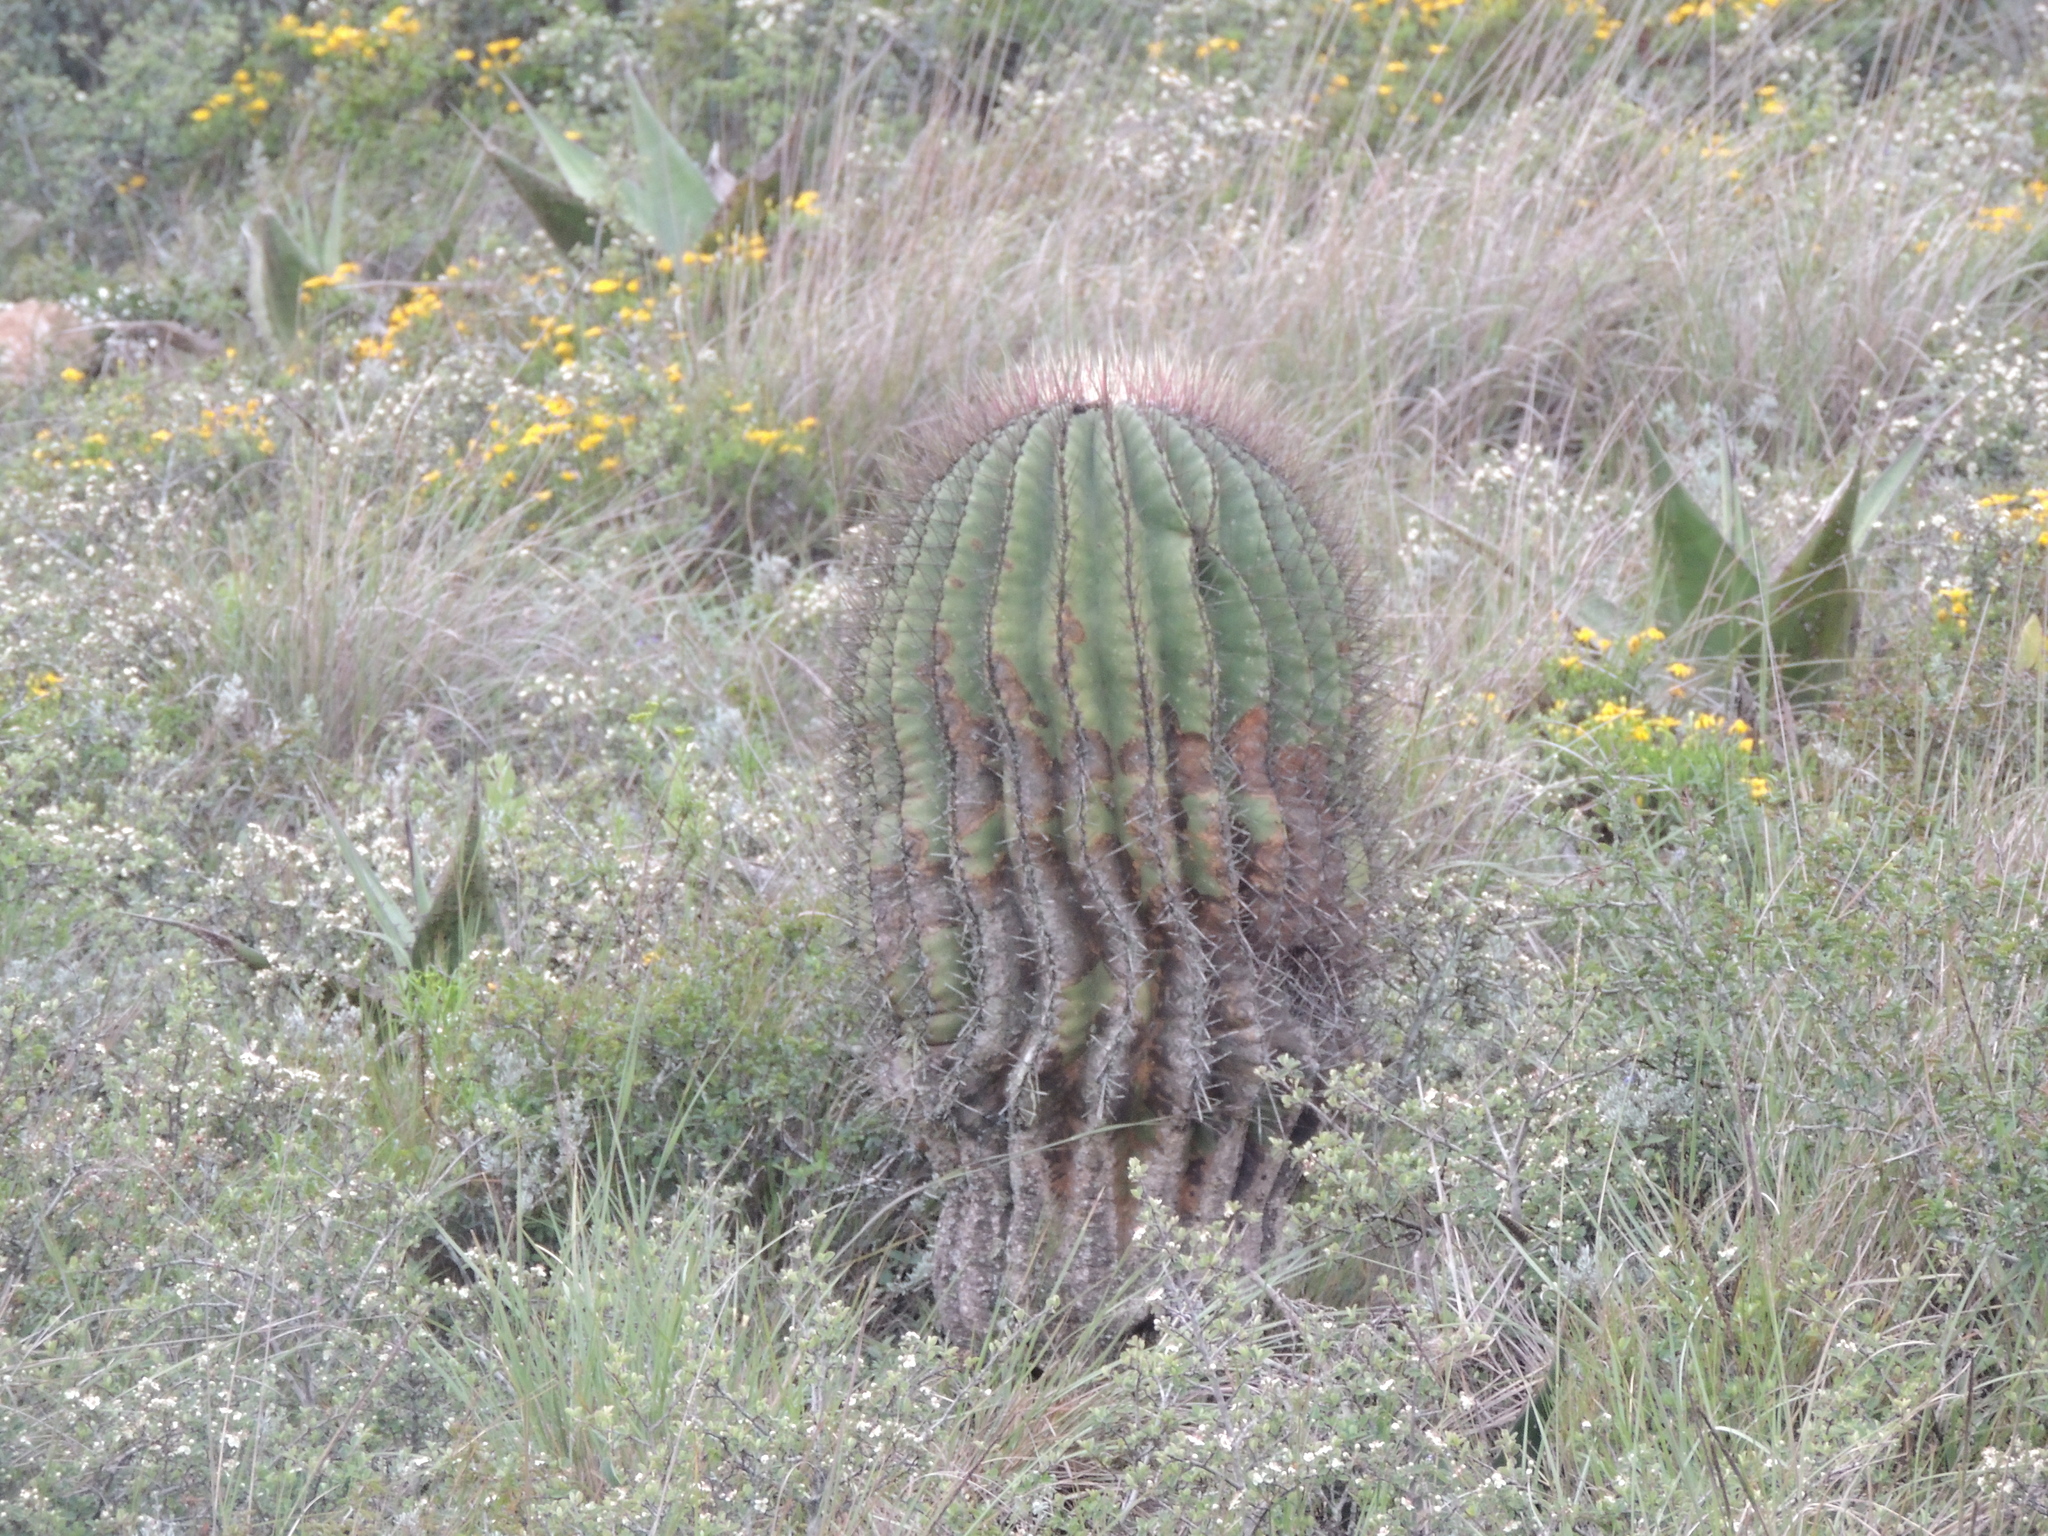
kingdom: Plantae
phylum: Tracheophyta
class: Magnoliopsida
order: Caryophyllales
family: Cactaceae
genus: Ferocactus
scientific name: Ferocactus haematacanthus
